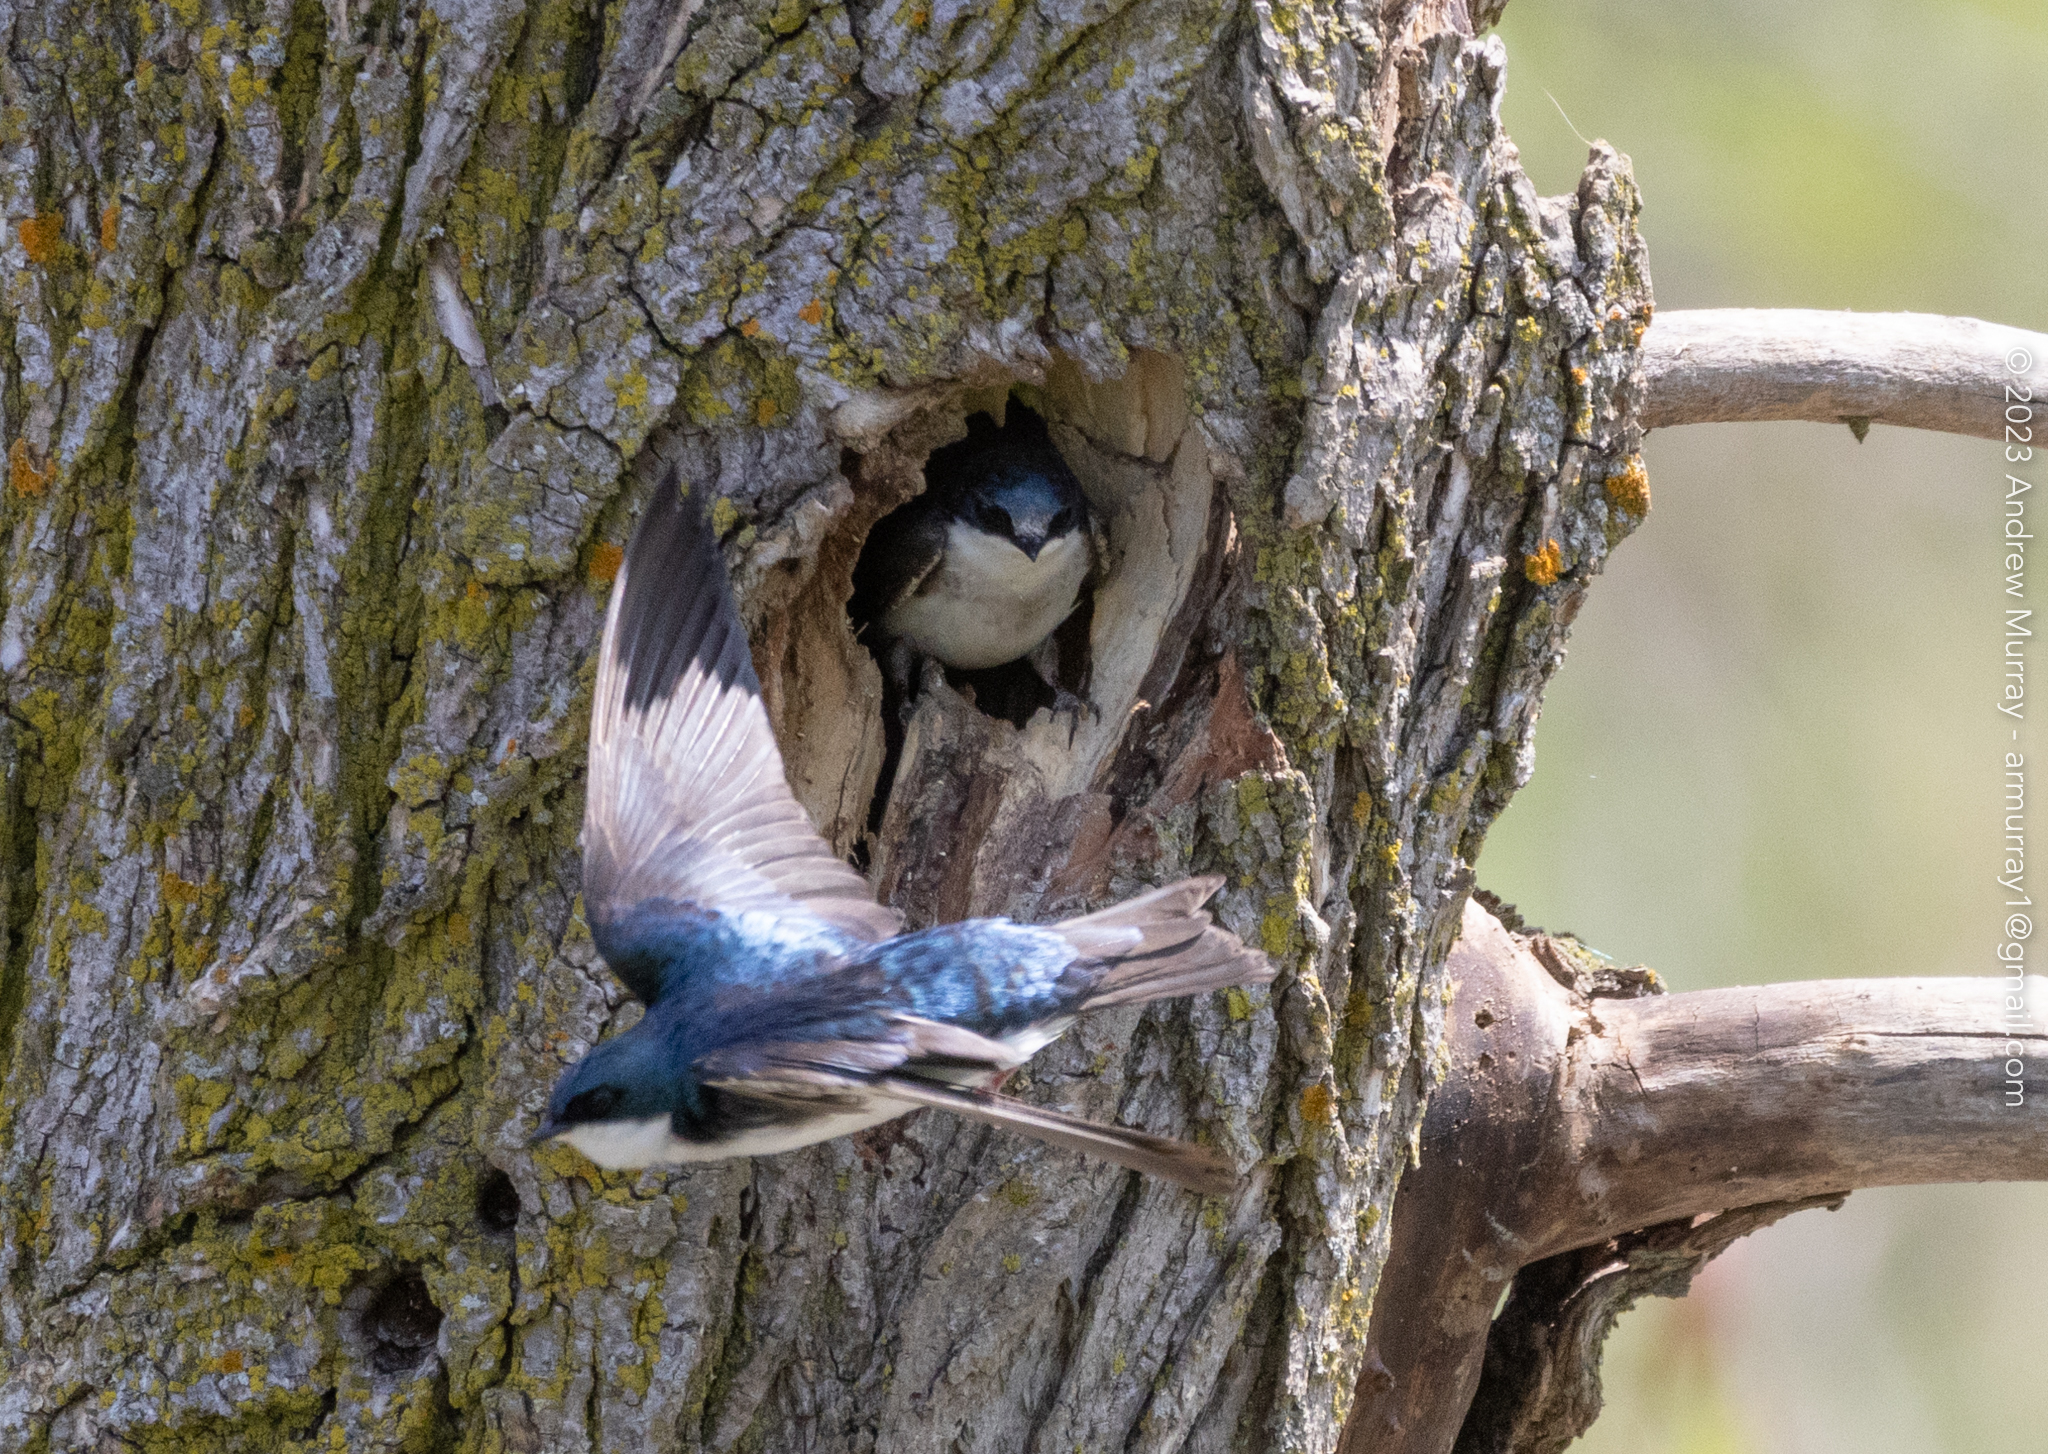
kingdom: Animalia
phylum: Chordata
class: Aves
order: Passeriformes
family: Hirundinidae
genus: Tachycineta
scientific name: Tachycineta bicolor
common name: Tree swallow
